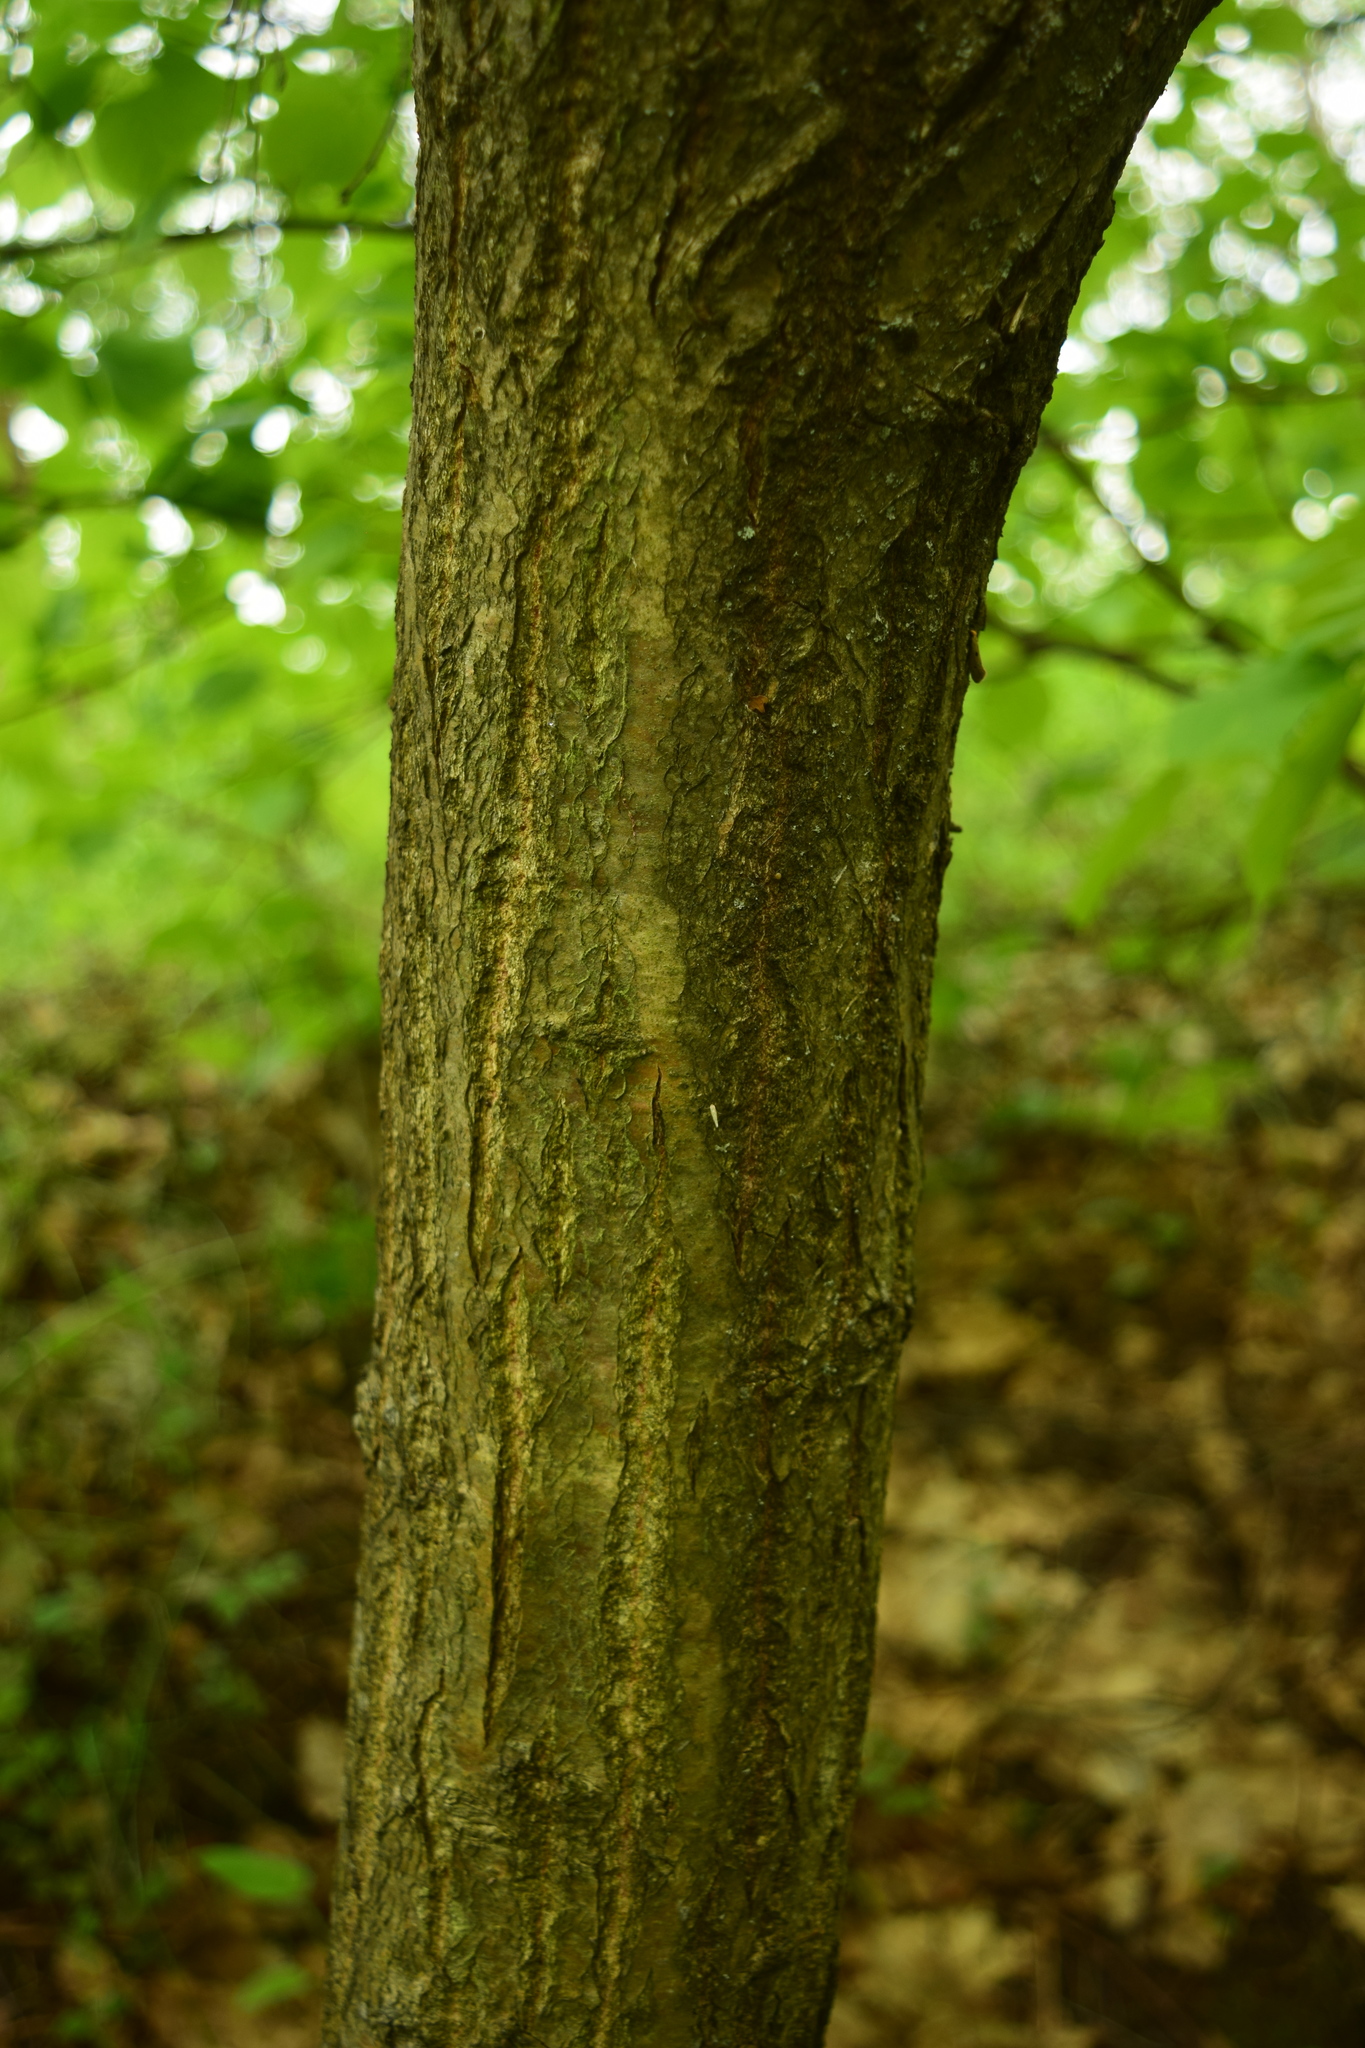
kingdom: Plantae
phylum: Tracheophyta
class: Magnoliopsida
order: Fagales
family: Fagaceae
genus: Quercus
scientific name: Quercus robur
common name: Pedunculate oak
